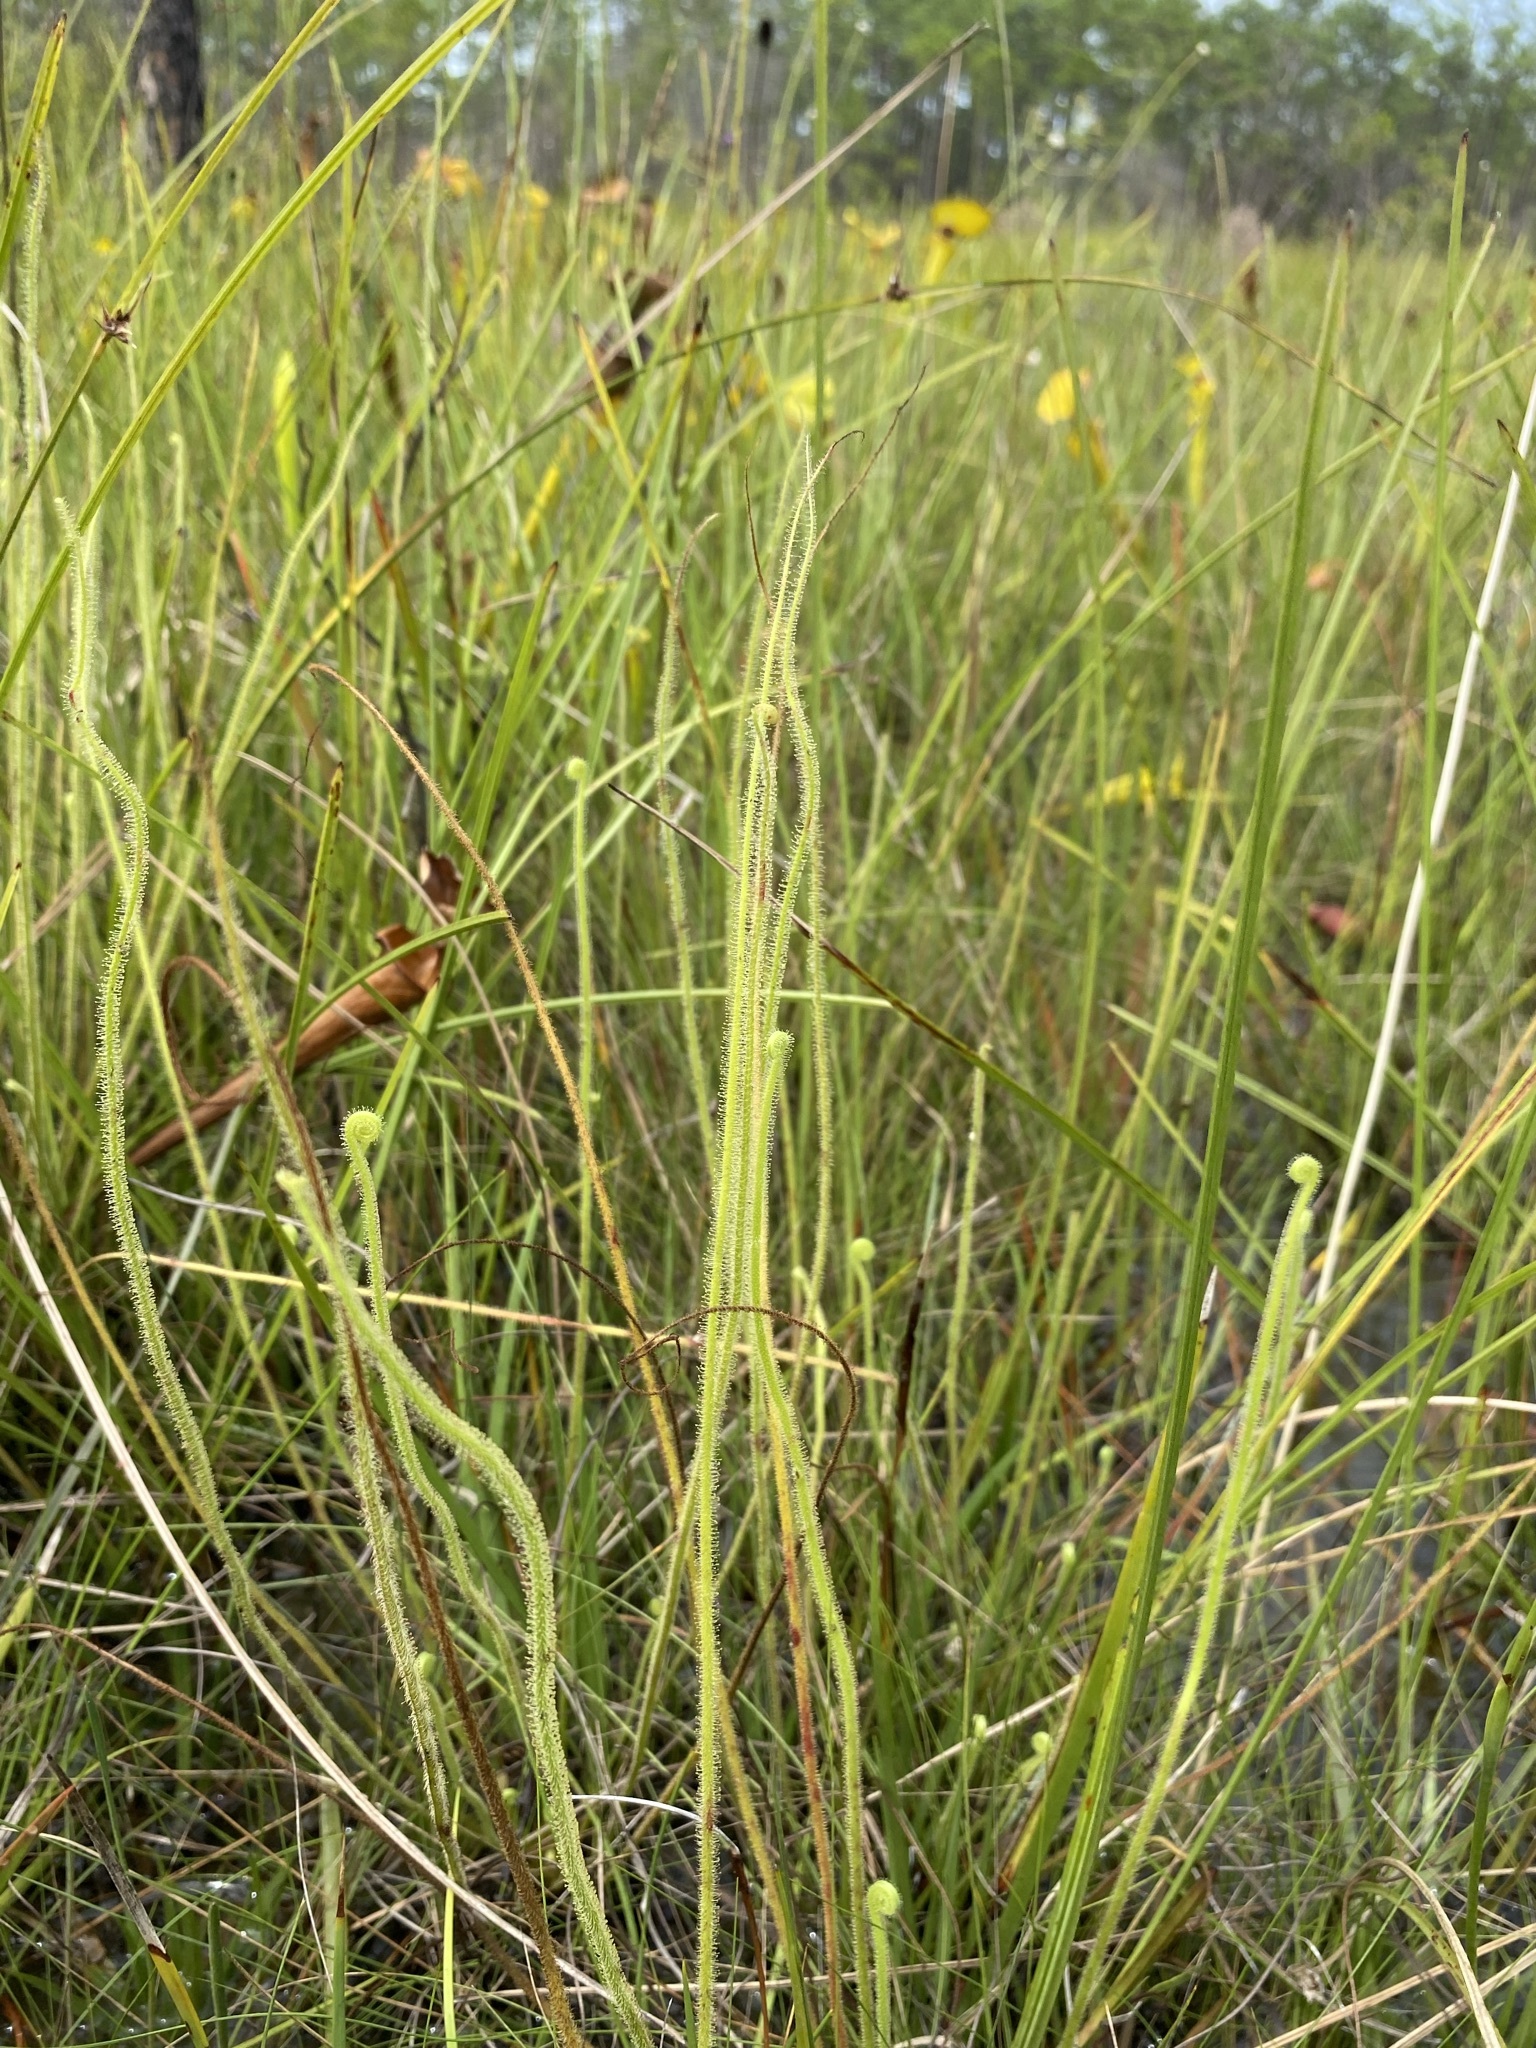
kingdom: Plantae
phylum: Tracheophyta
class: Magnoliopsida
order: Caryophyllales
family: Droseraceae
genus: Drosera
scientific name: Drosera filiformis
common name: Dew-thread
